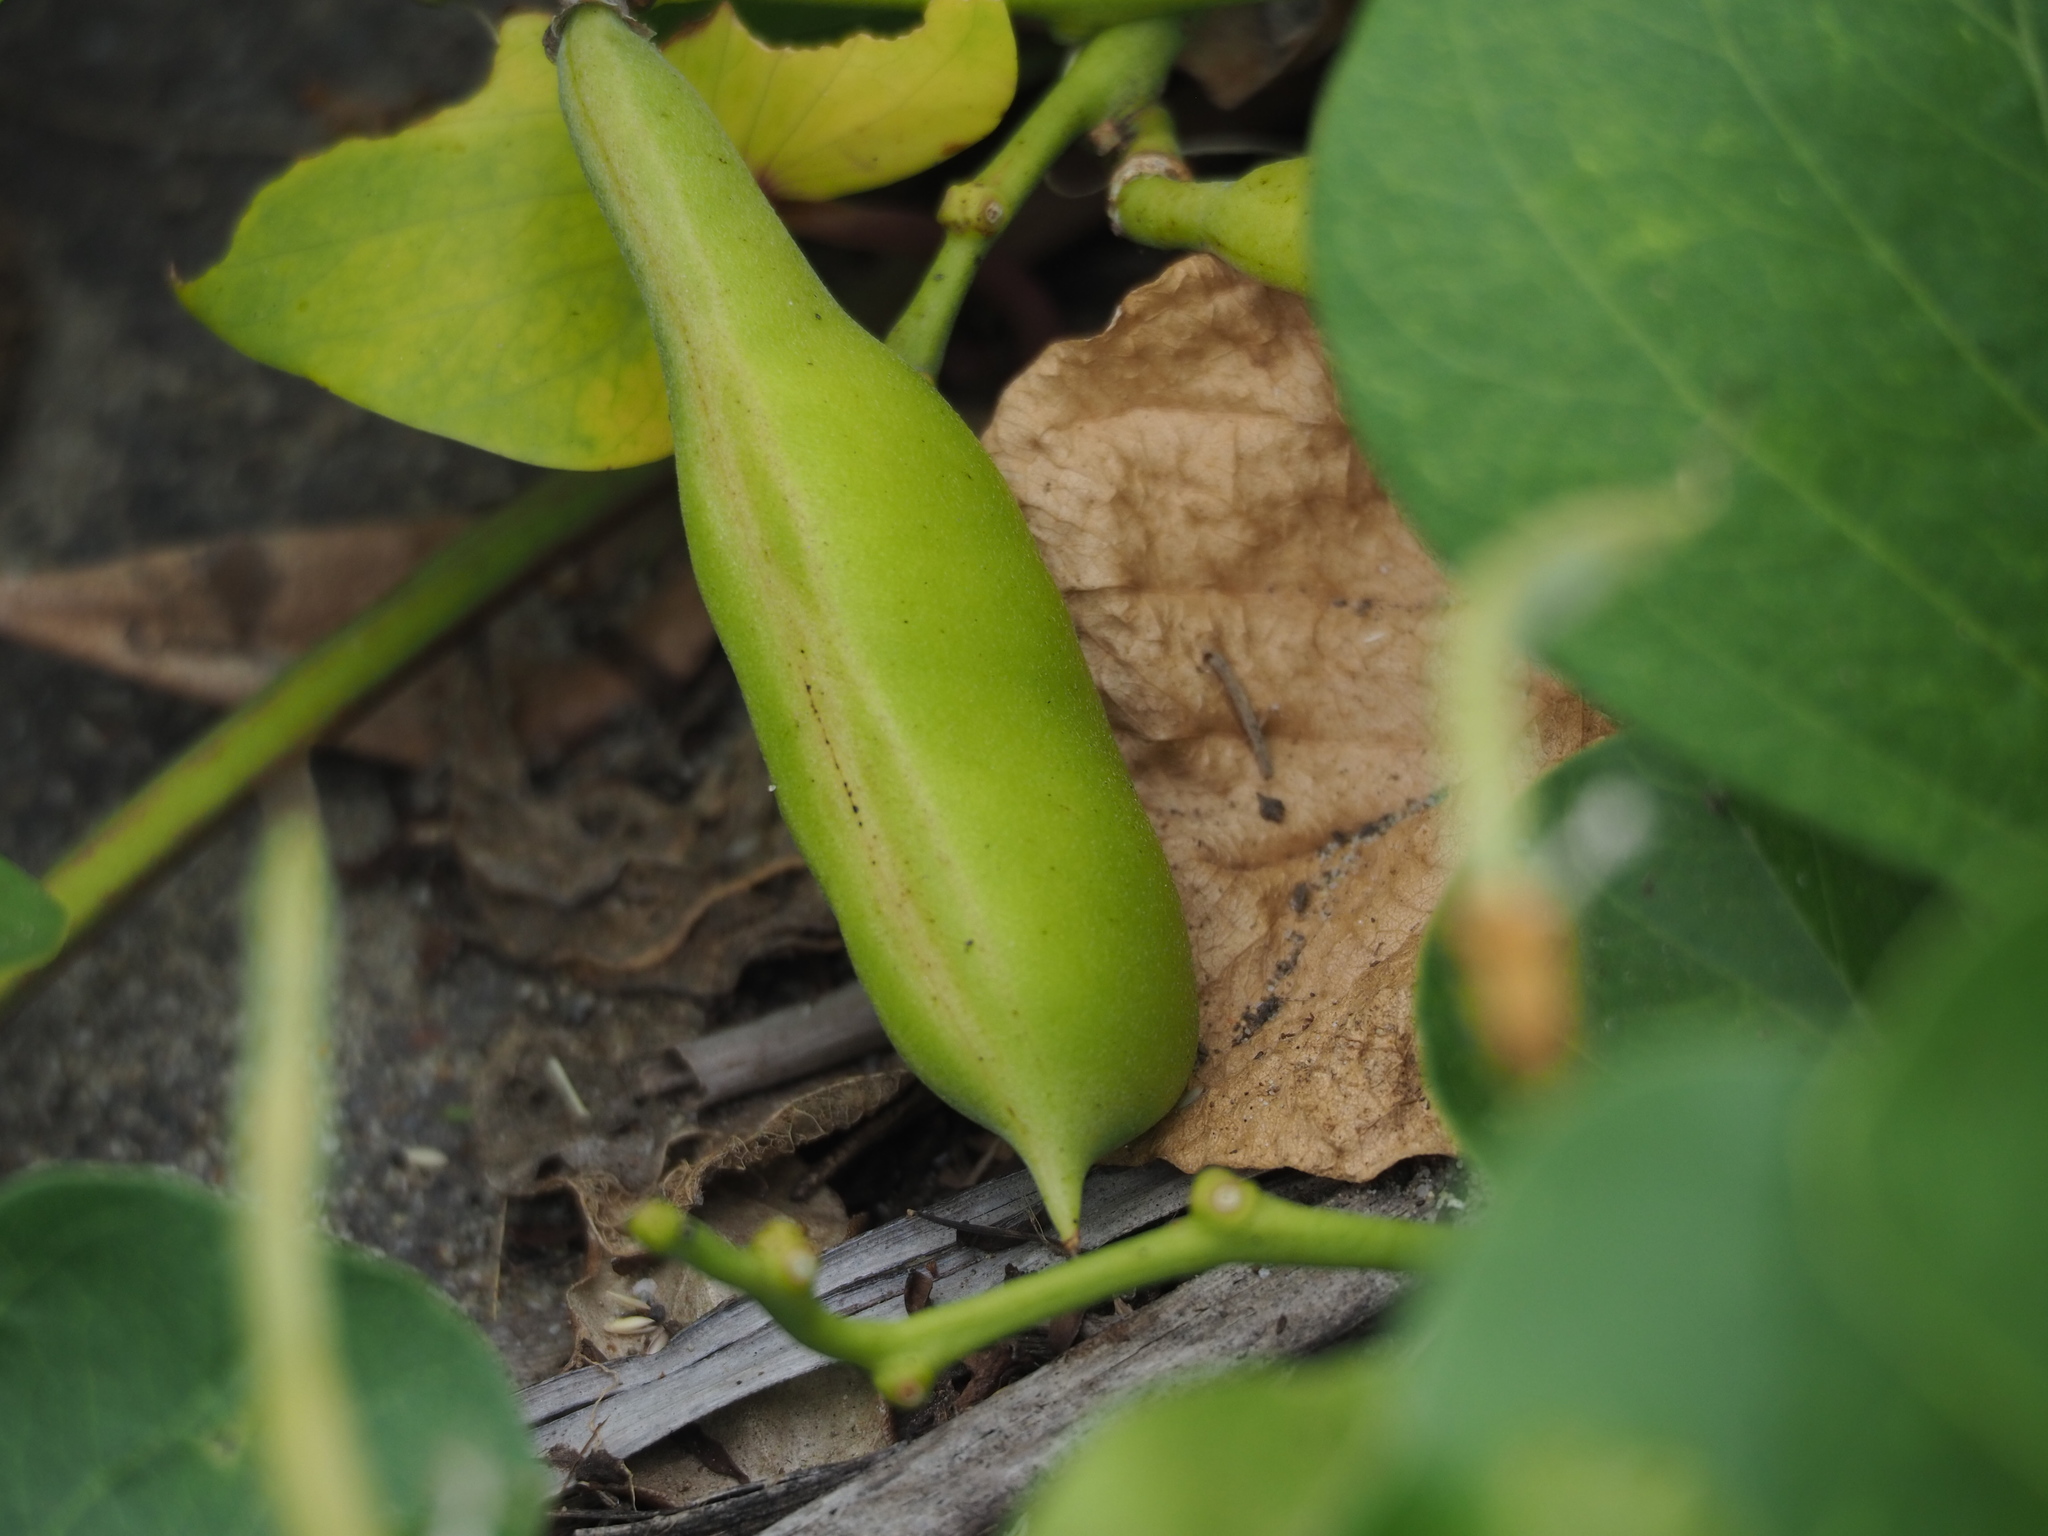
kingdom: Plantae
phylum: Tracheophyta
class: Magnoliopsida
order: Fabales
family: Fabaceae
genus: Canavalia
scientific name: Canavalia lineata
